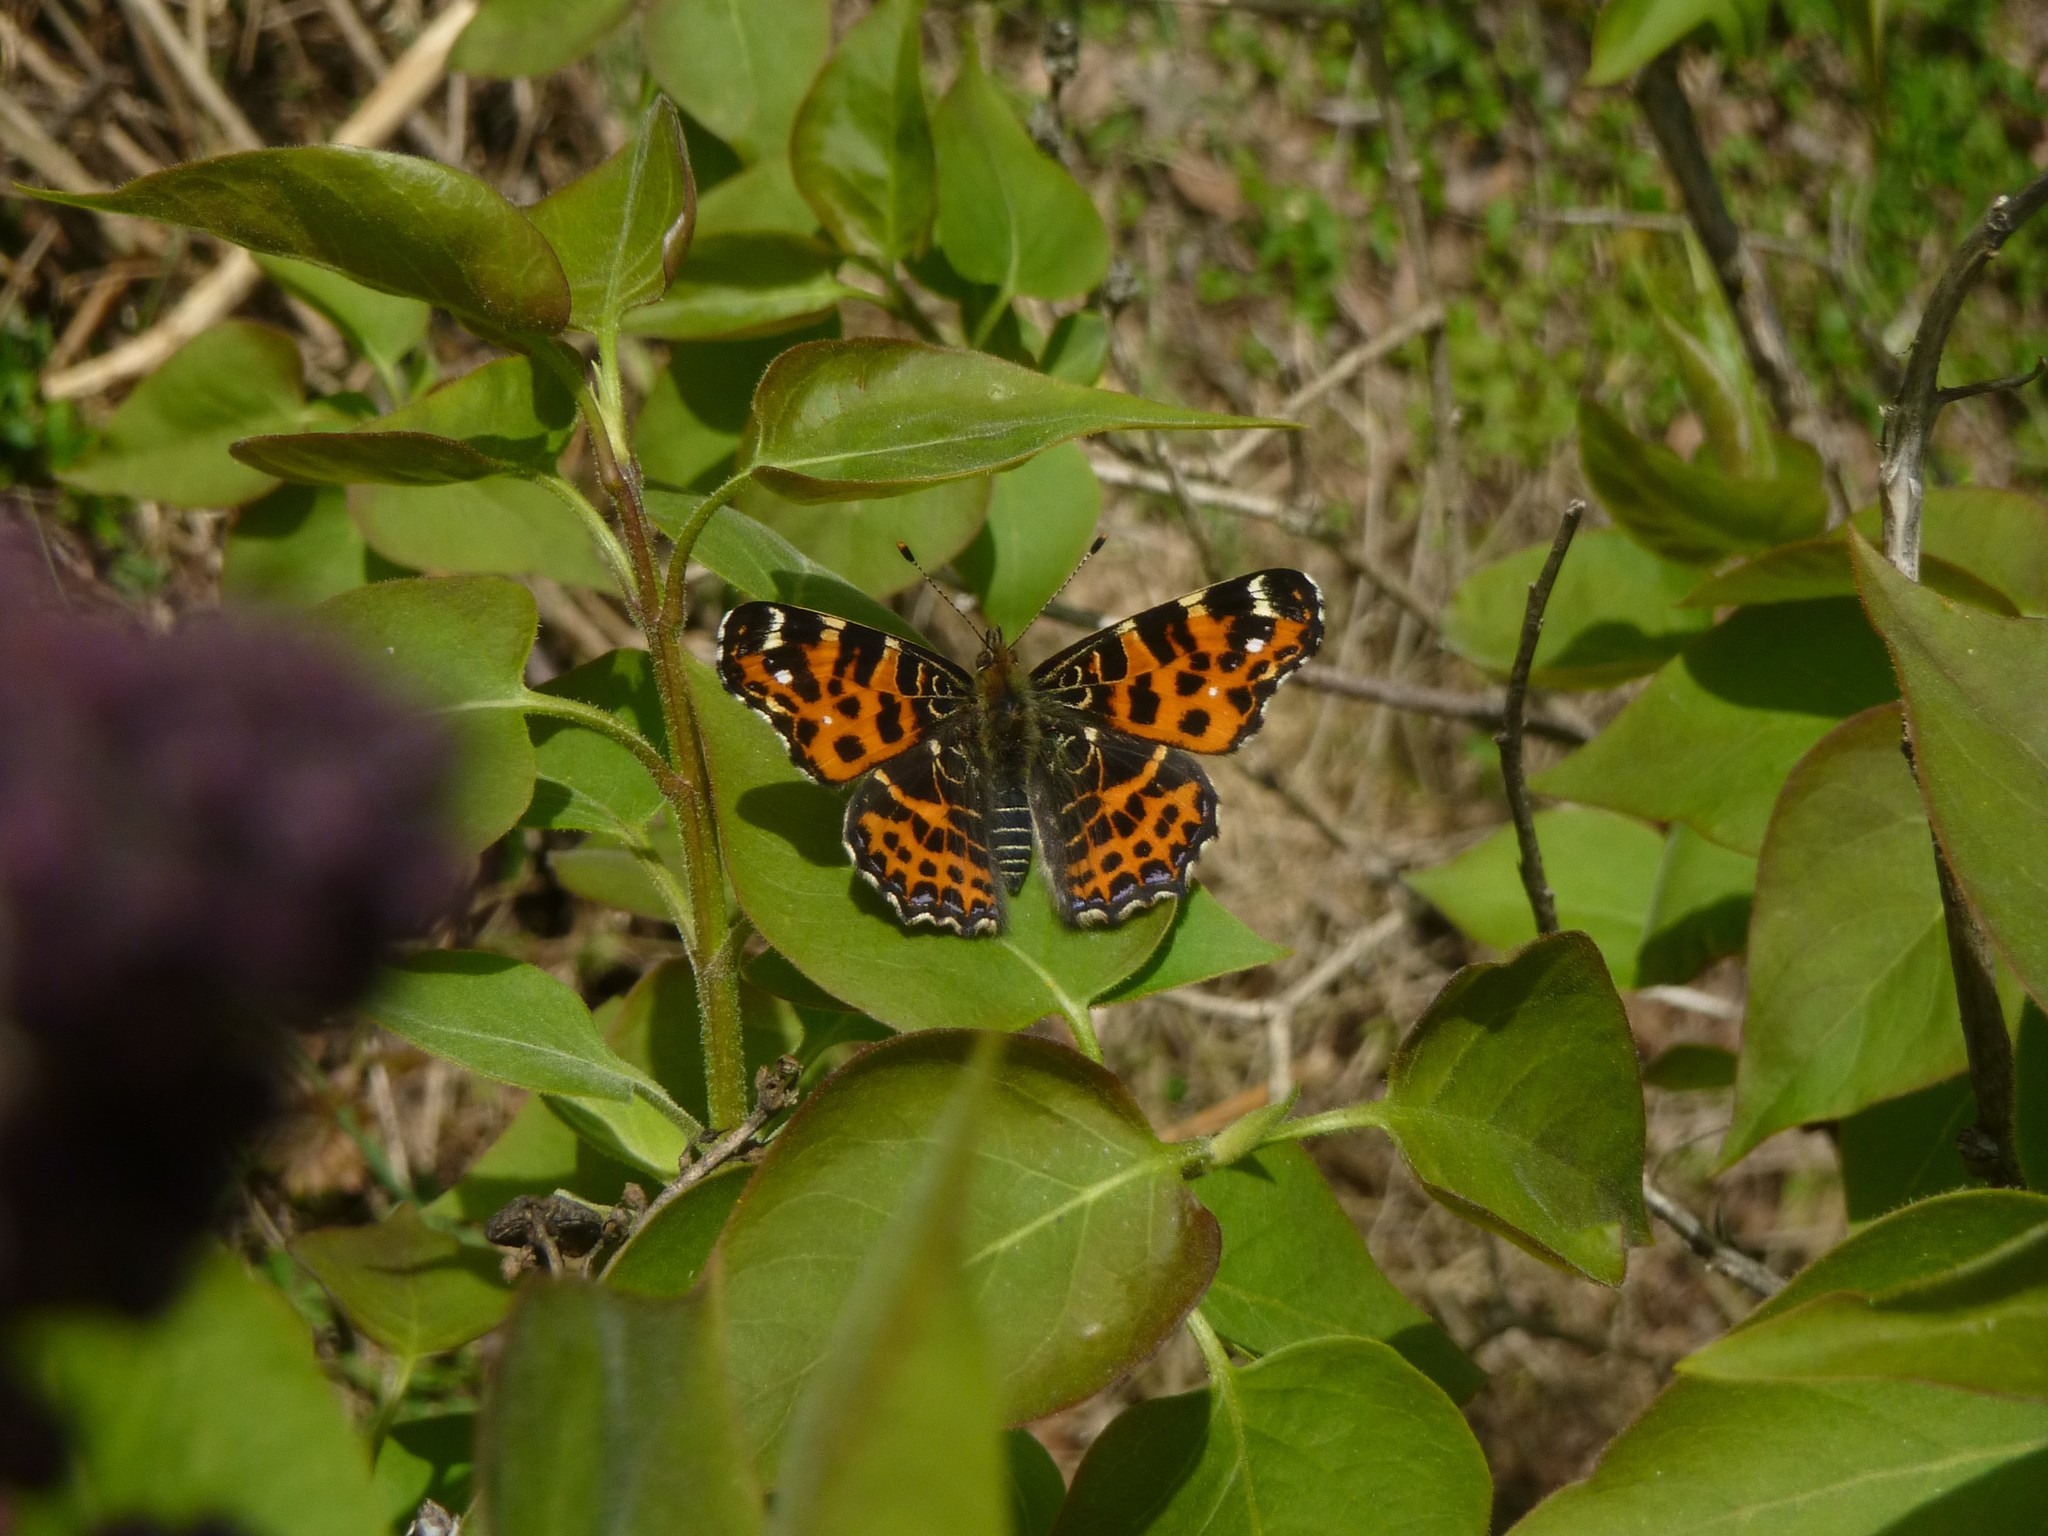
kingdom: Animalia
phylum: Arthropoda
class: Insecta
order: Lepidoptera
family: Nymphalidae
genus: Araschnia
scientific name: Araschnia levana
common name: Map butterfly
